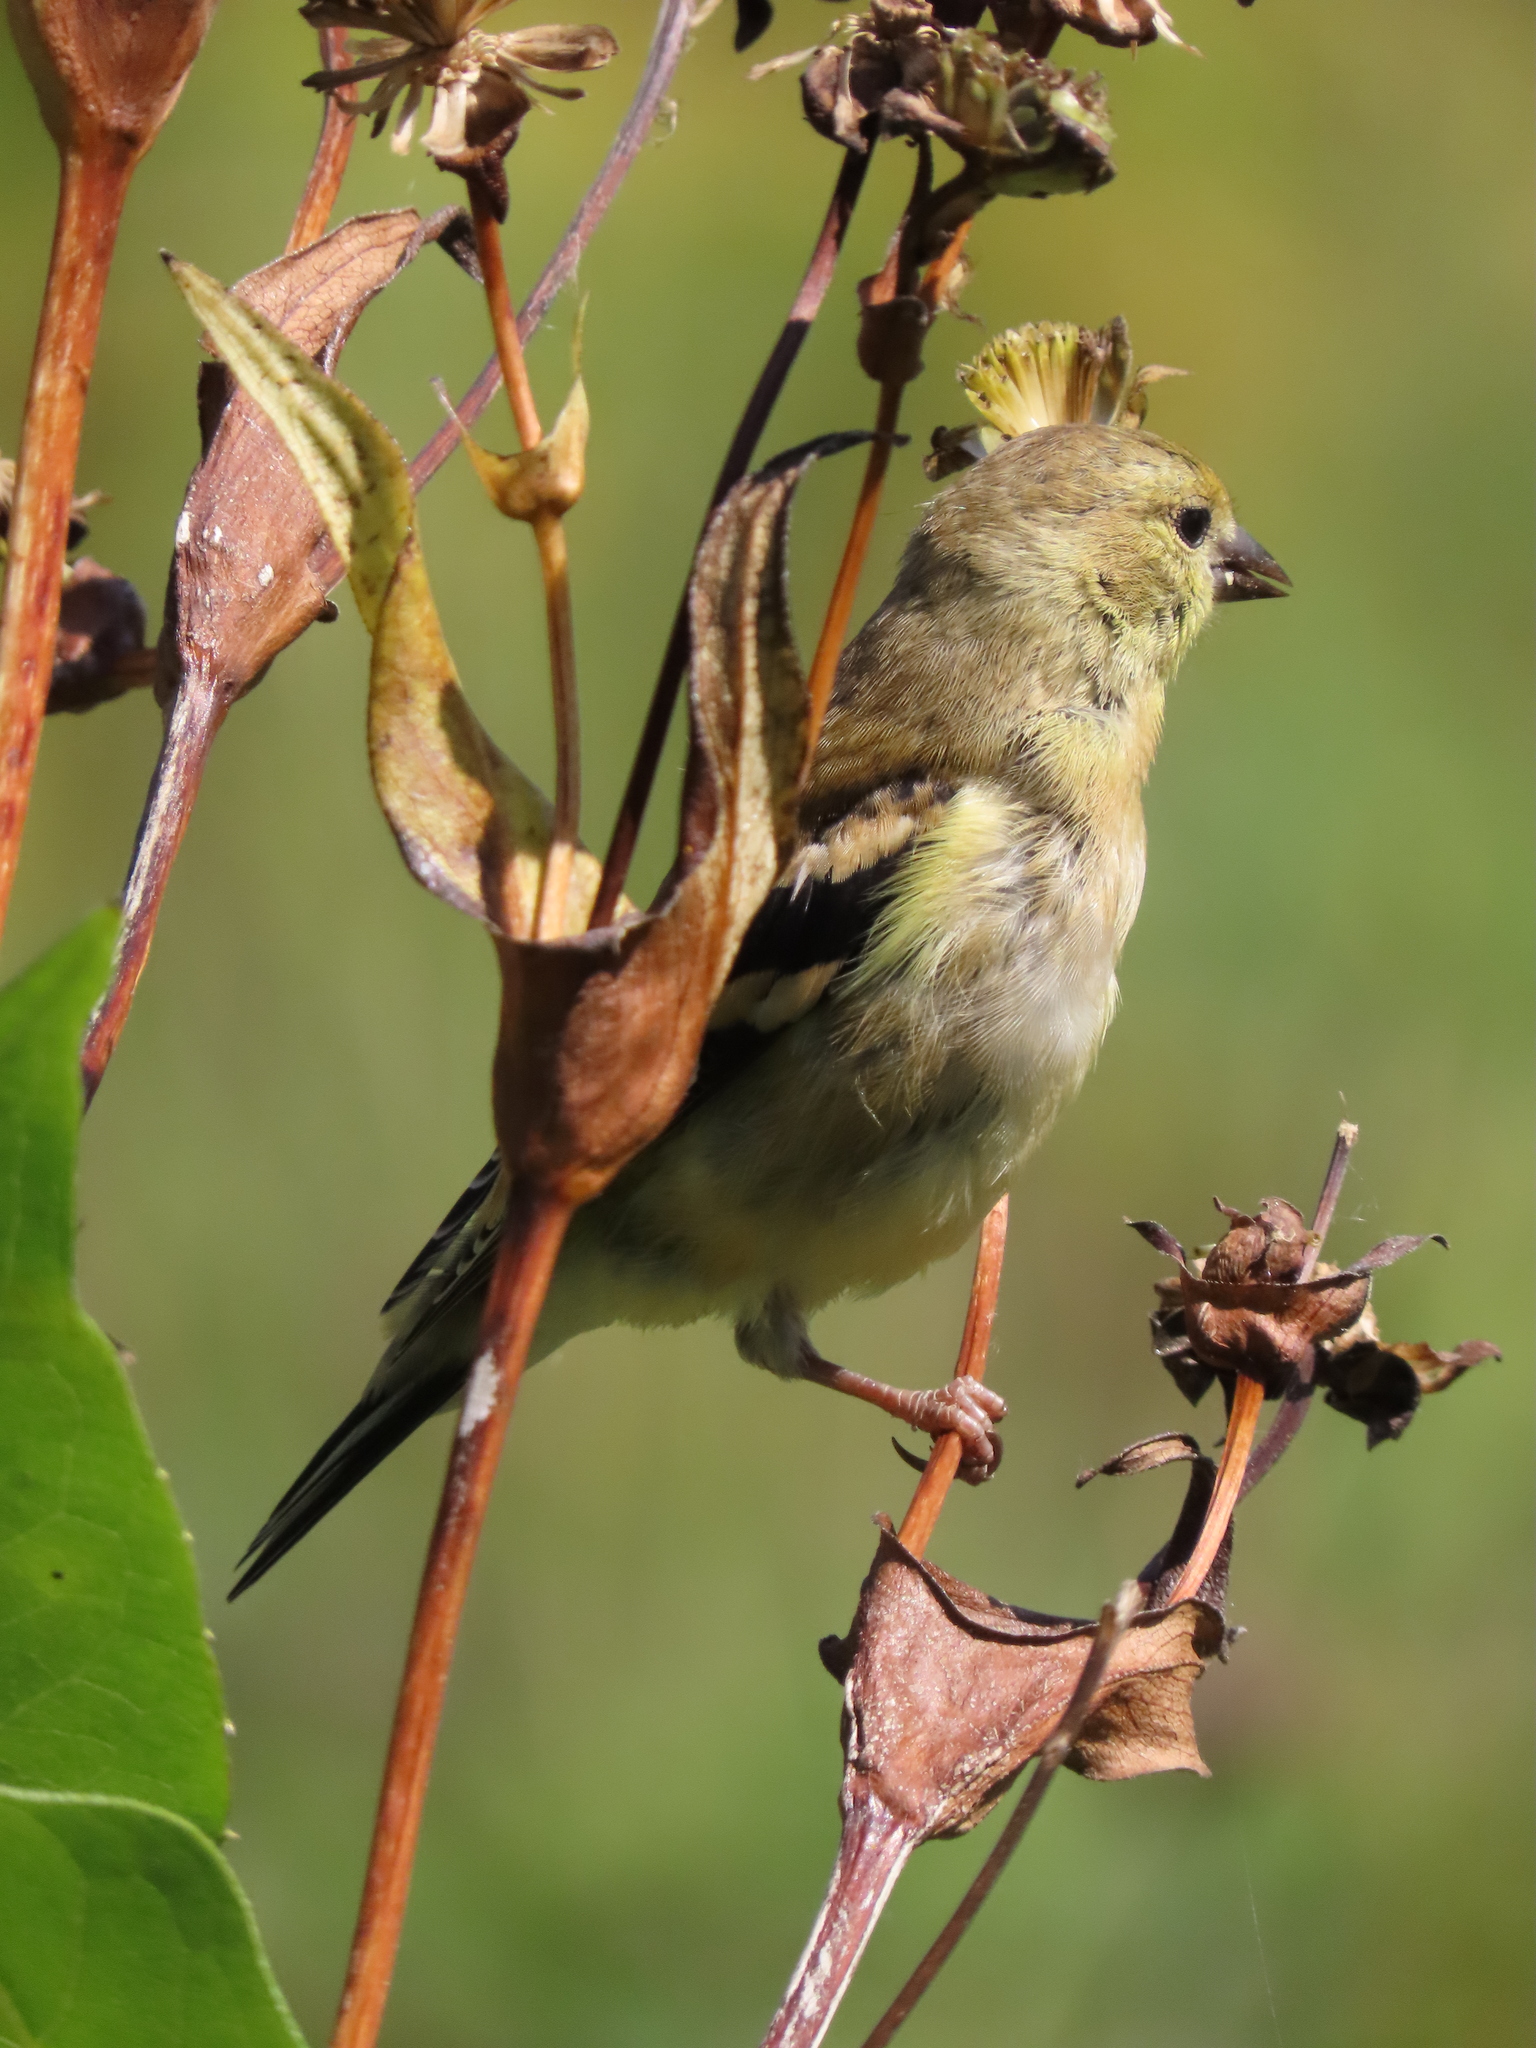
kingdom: Animalia
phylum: Chordata
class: Aves
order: Passeriformes
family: Fringillidae
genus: Spinus
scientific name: Spinus tristis
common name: American goldfinch
